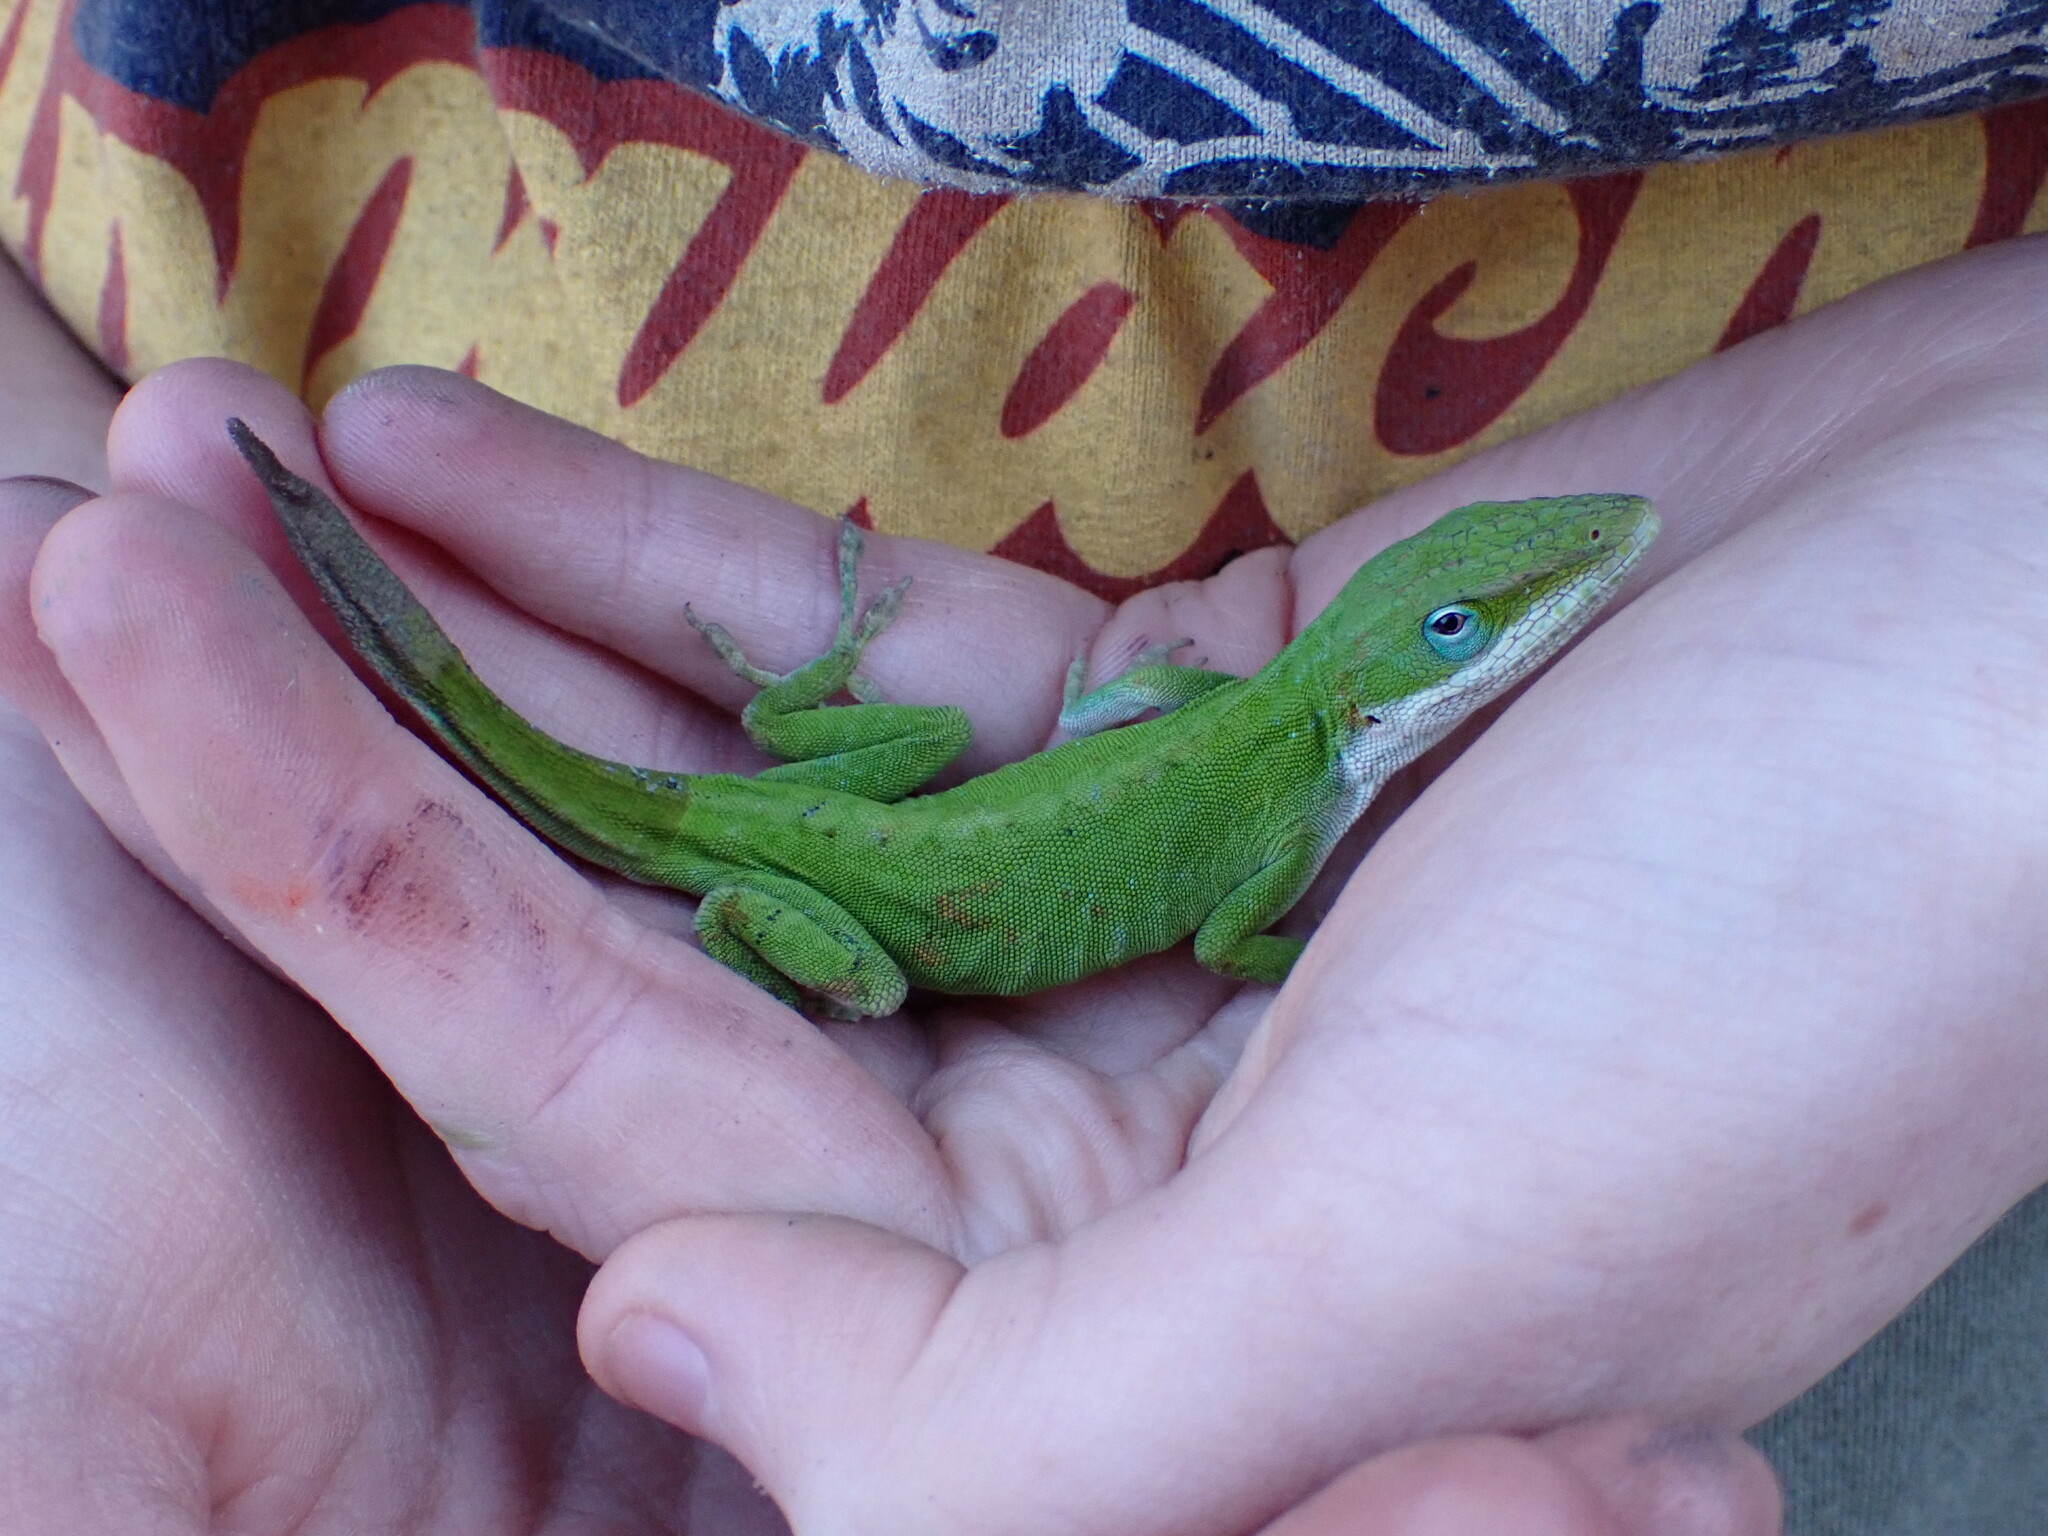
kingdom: Animalia
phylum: Chordata
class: Squamata
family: Dactyloidae
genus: Anolis
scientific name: Anolis carolinensis
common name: Green anole
